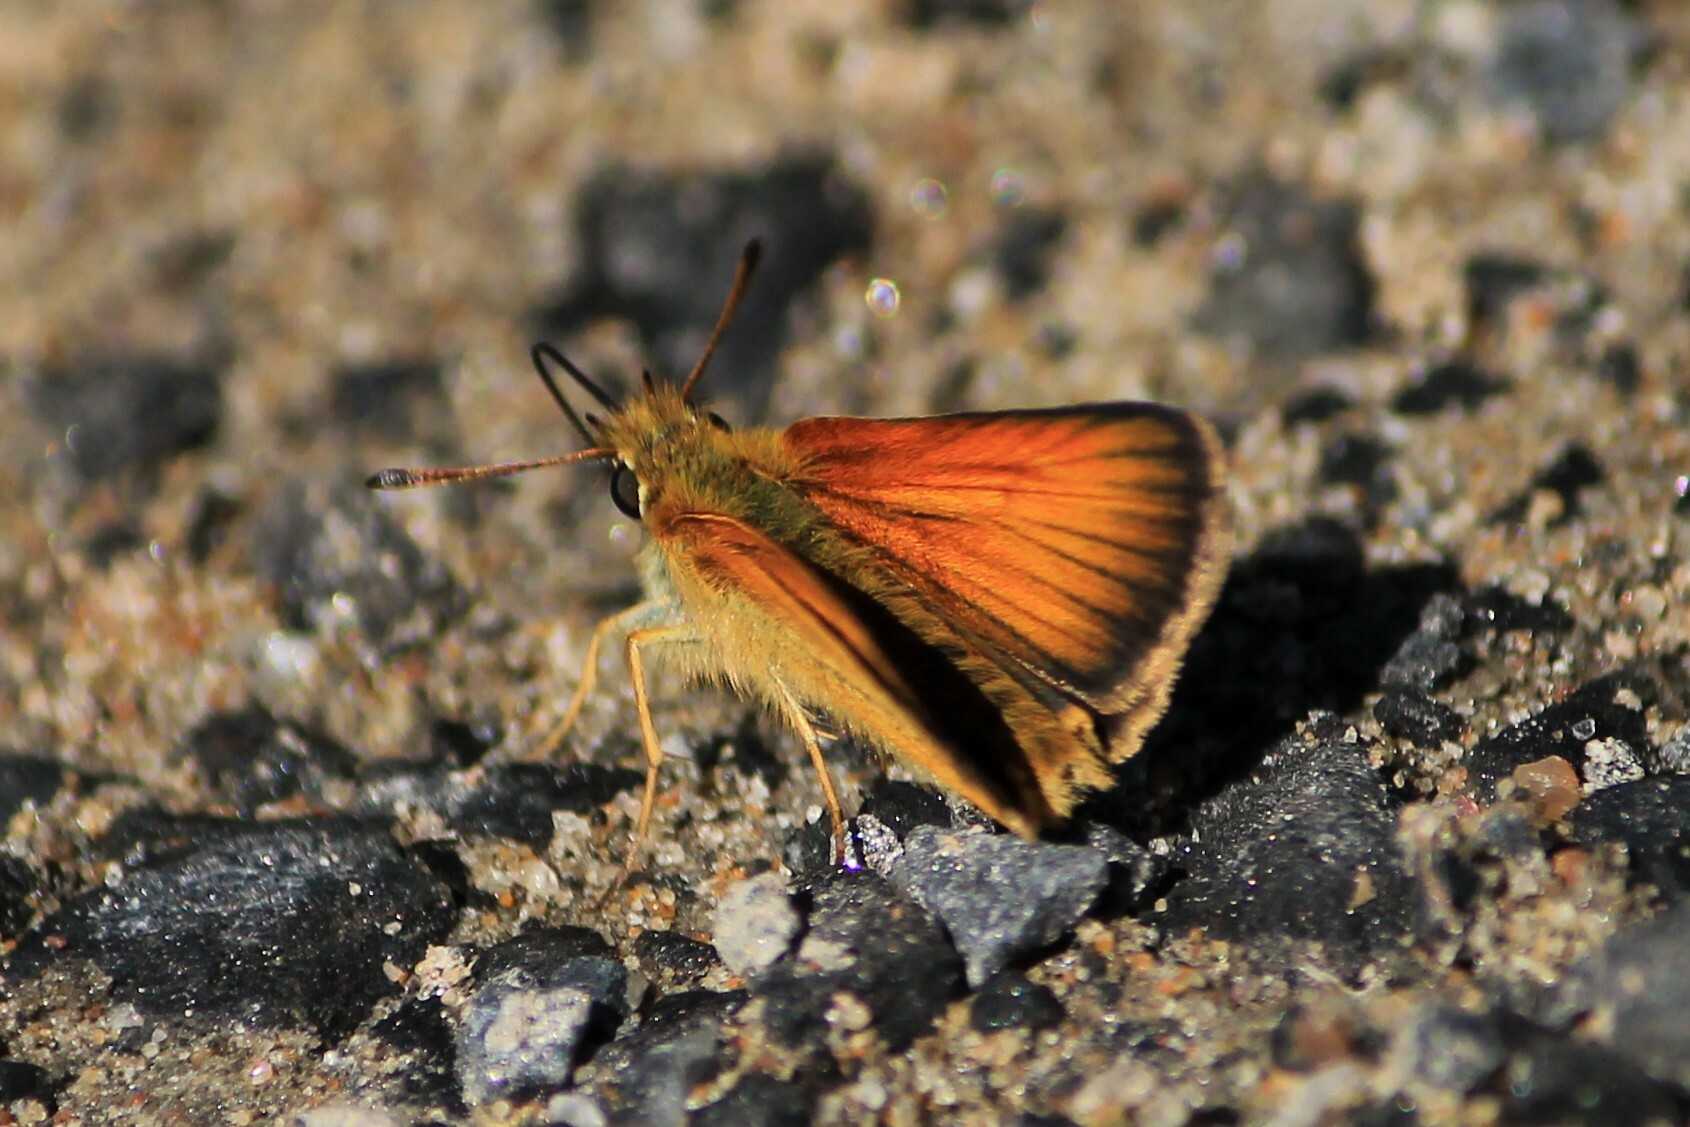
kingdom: Animalia
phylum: Arthropoda
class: Insecta
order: Lepidoptera
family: Hesperiidae
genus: Thymelicus
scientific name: Thymelicus lineola
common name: Essex skipper
